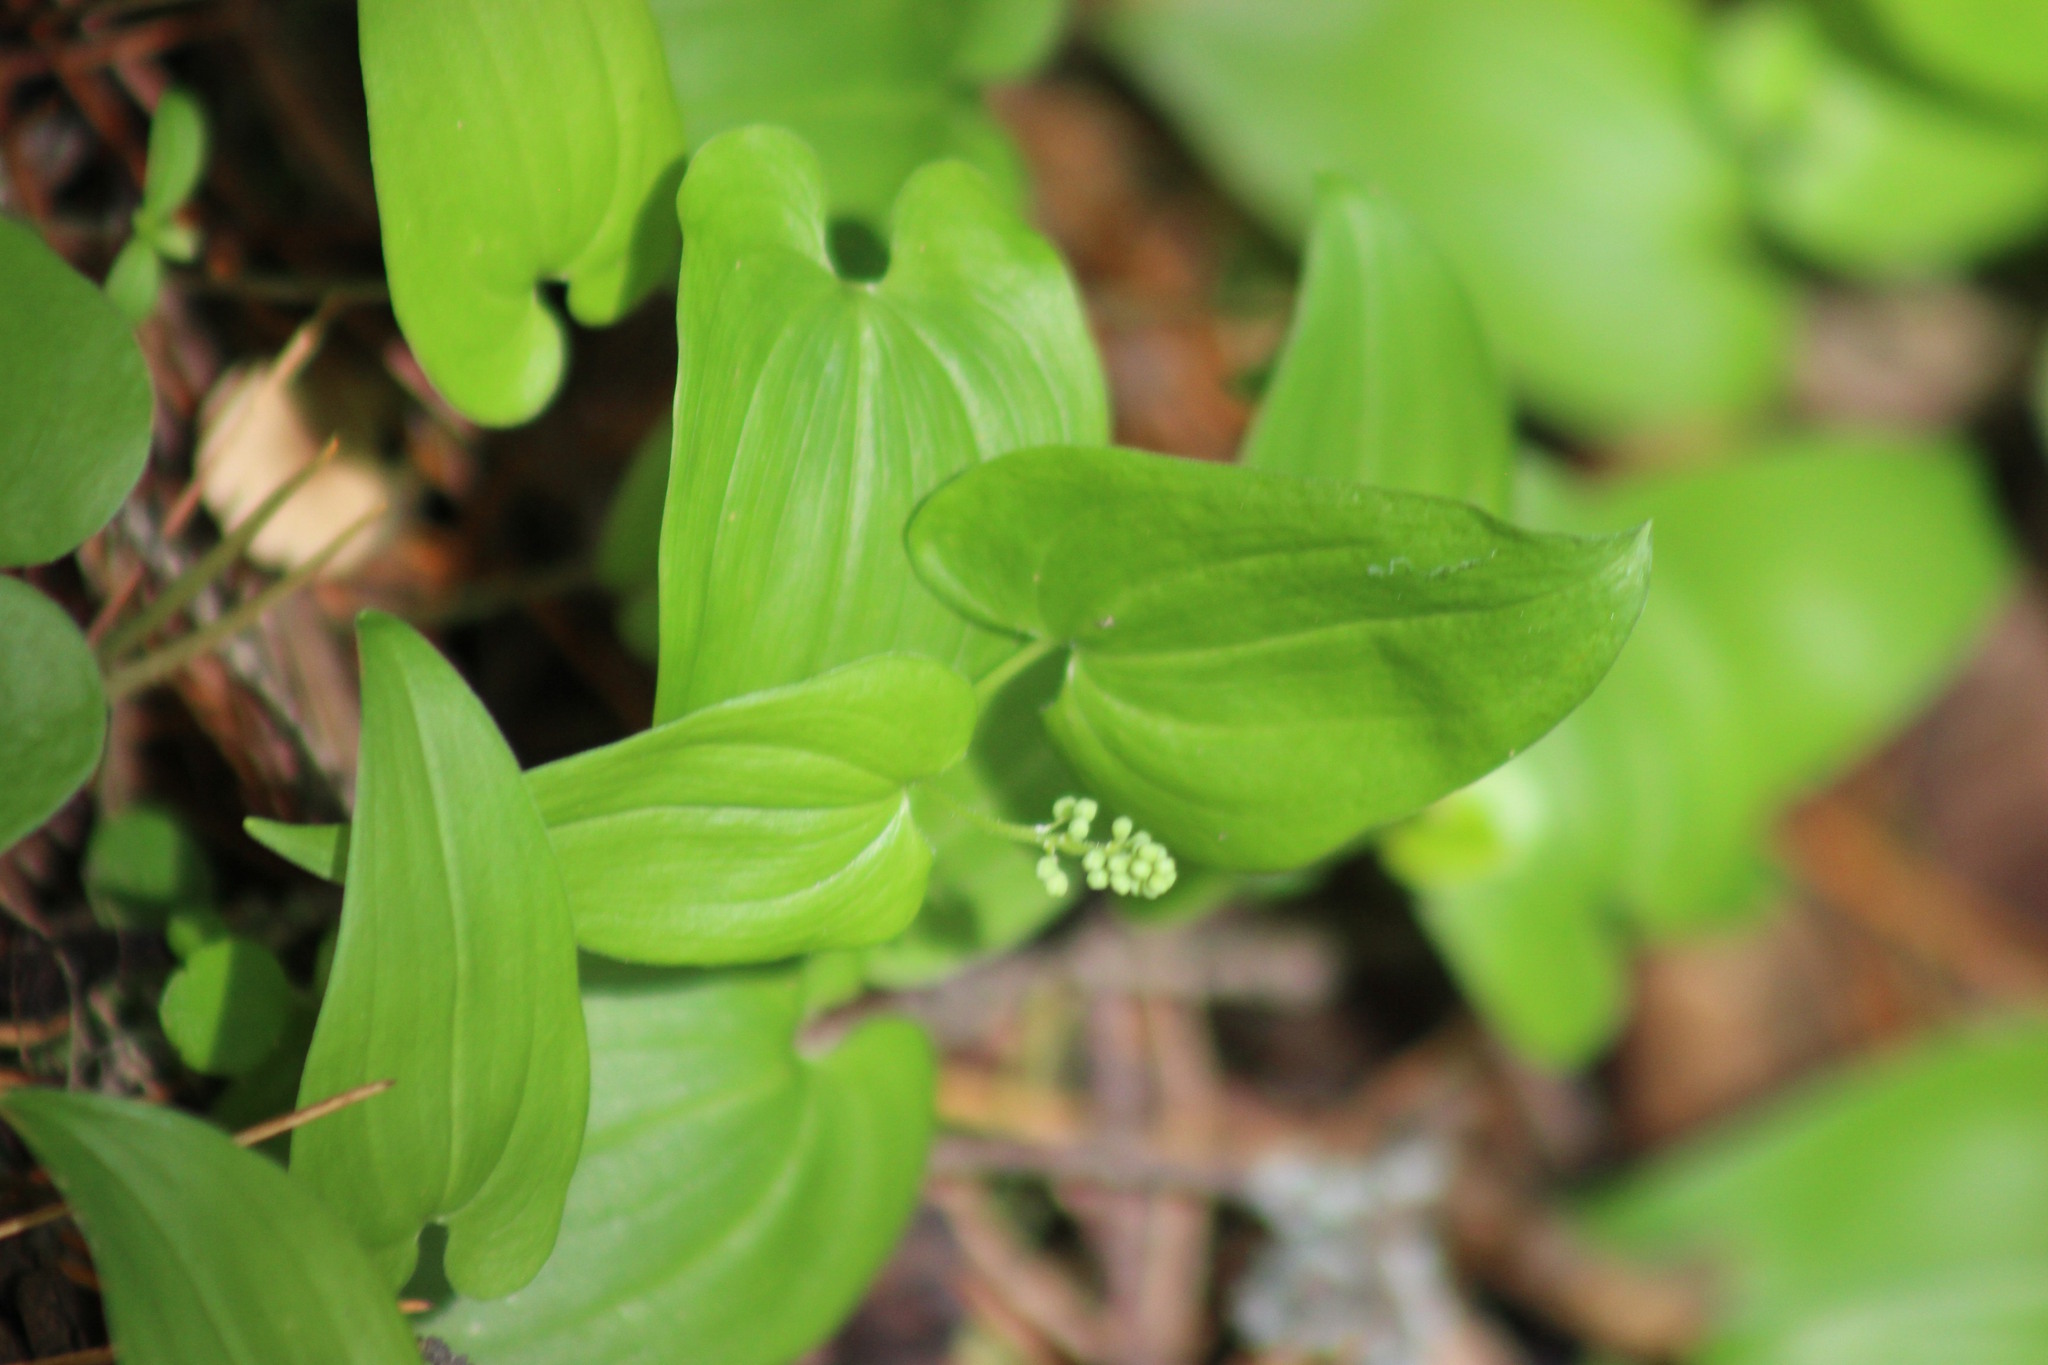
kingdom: Plantae
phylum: Tracheophyta
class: Liliopsida
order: Asparagales
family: Asparagaceae
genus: Maianthemum
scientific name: Maianthemum bifolium
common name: May lily
